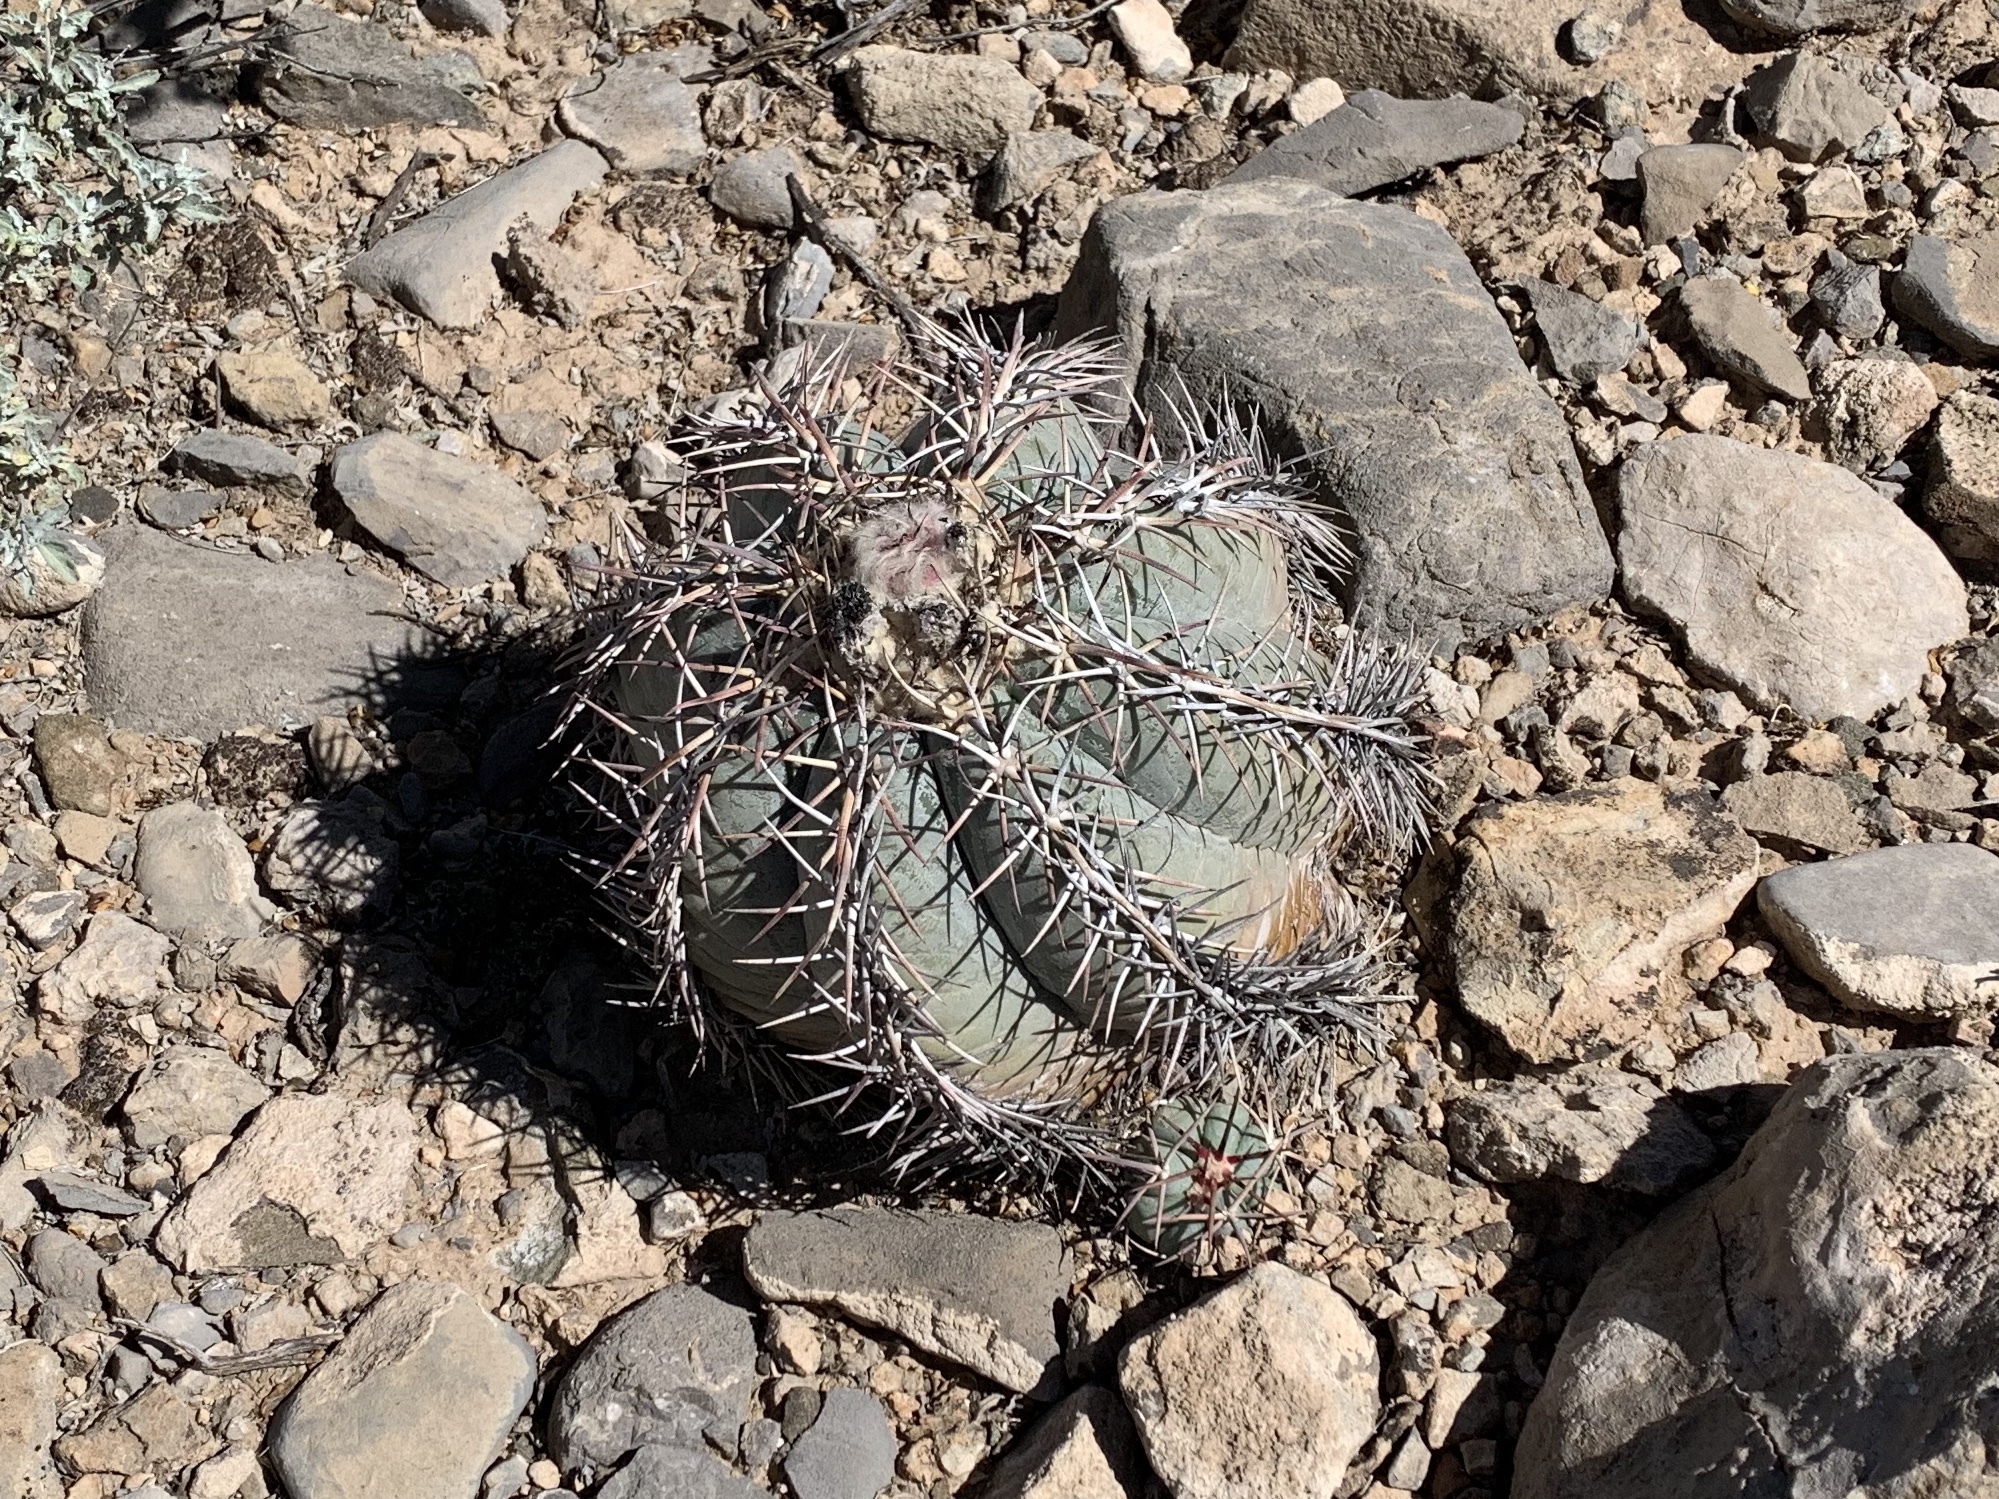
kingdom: Plantae
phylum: Tracheophyta
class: Magnoliopsida
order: Caryophyllales
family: Cactaceae
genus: Echinocactus
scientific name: Echinocactus horizonthalonius
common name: Devilshead
